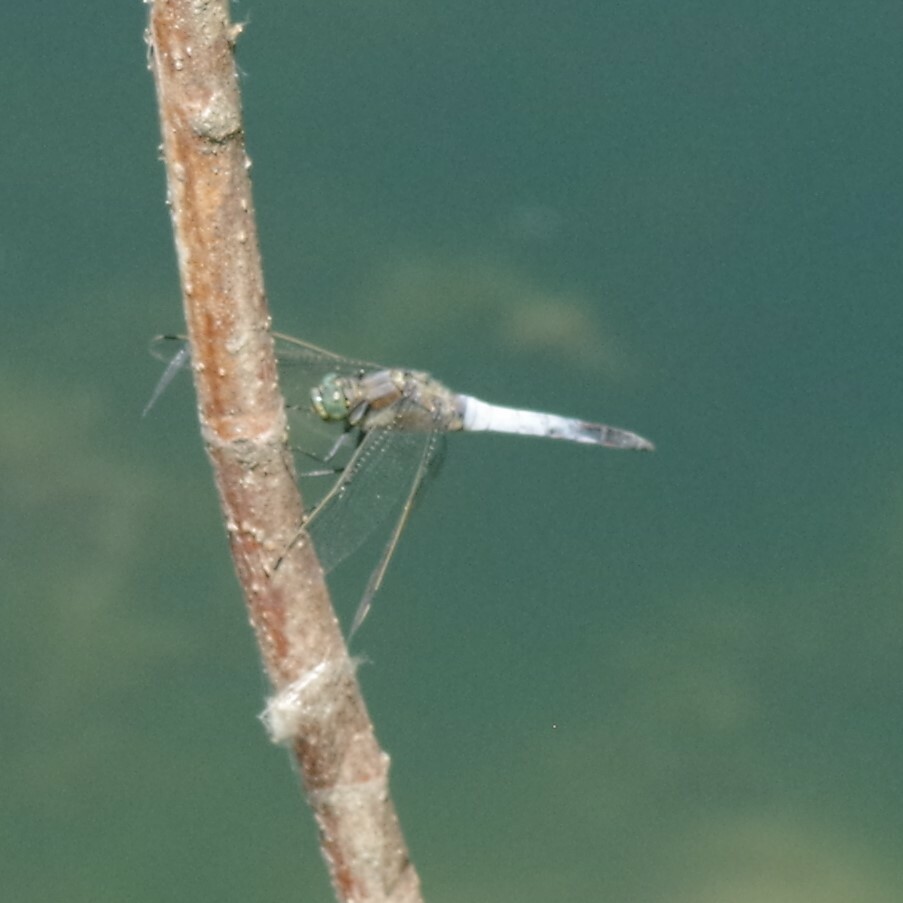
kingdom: Animalia
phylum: Arthropoda
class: Insecta
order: Odonata
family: Libellulidae
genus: Orthetrum
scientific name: Orthetrum cancellatum
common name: Black-tailed skimmer
